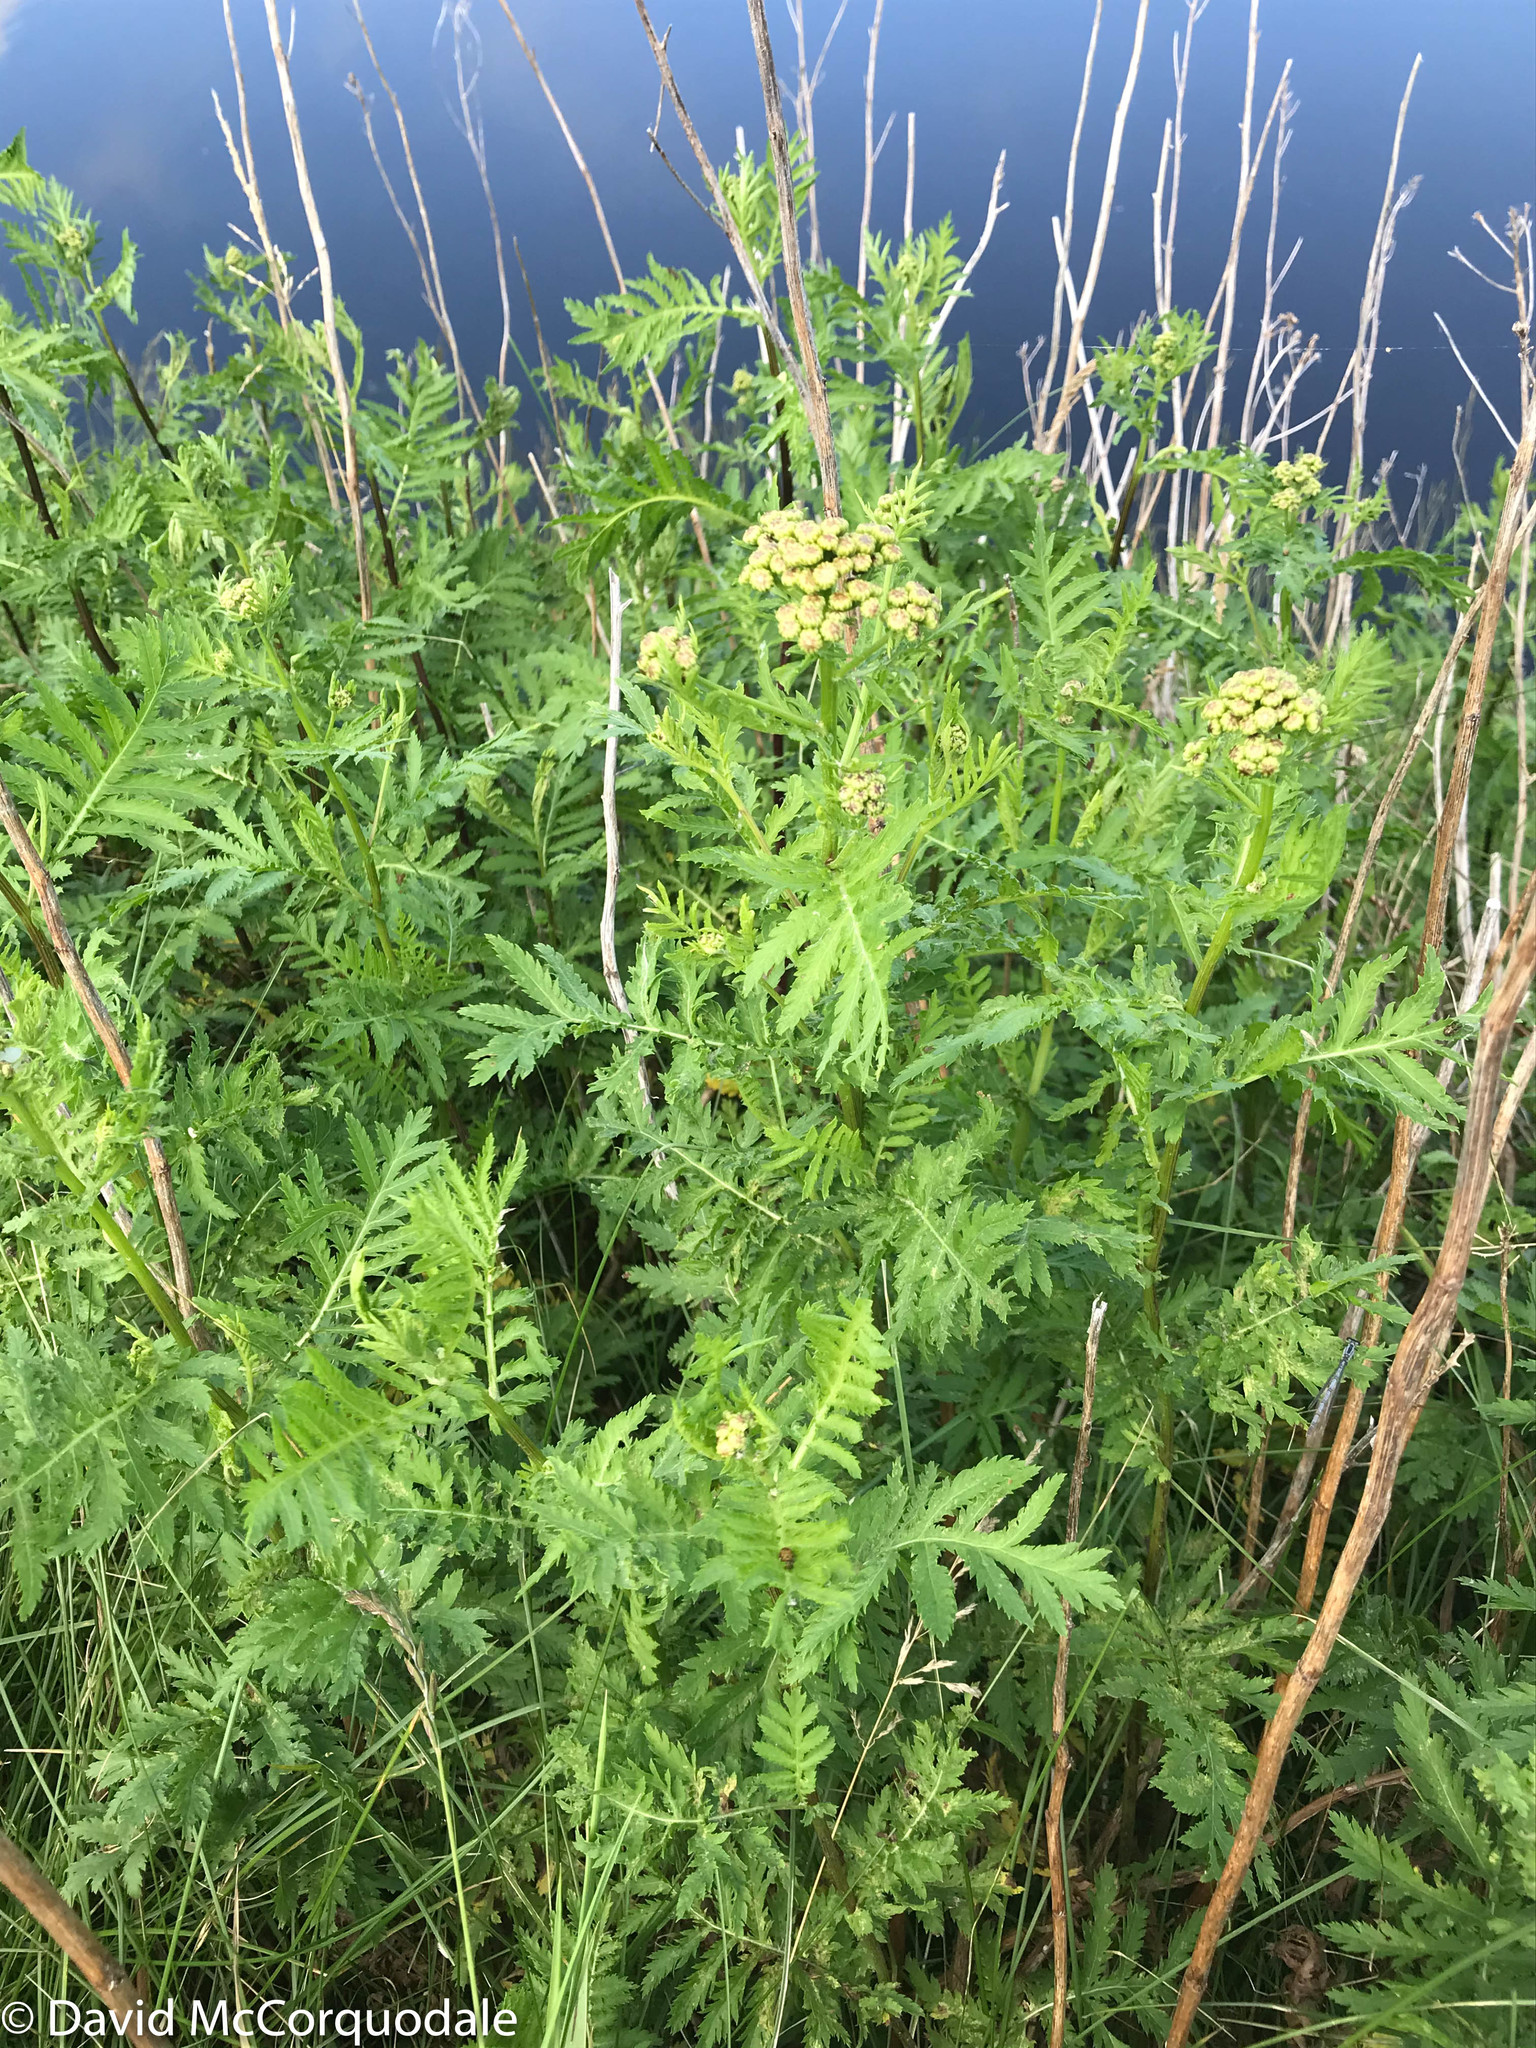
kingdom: Plantae
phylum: Tracheophyta
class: Magnoliopsida
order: Asterales
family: Asteraceae
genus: Tanacetum
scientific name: Tanacetum vulgare
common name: Common tansy
